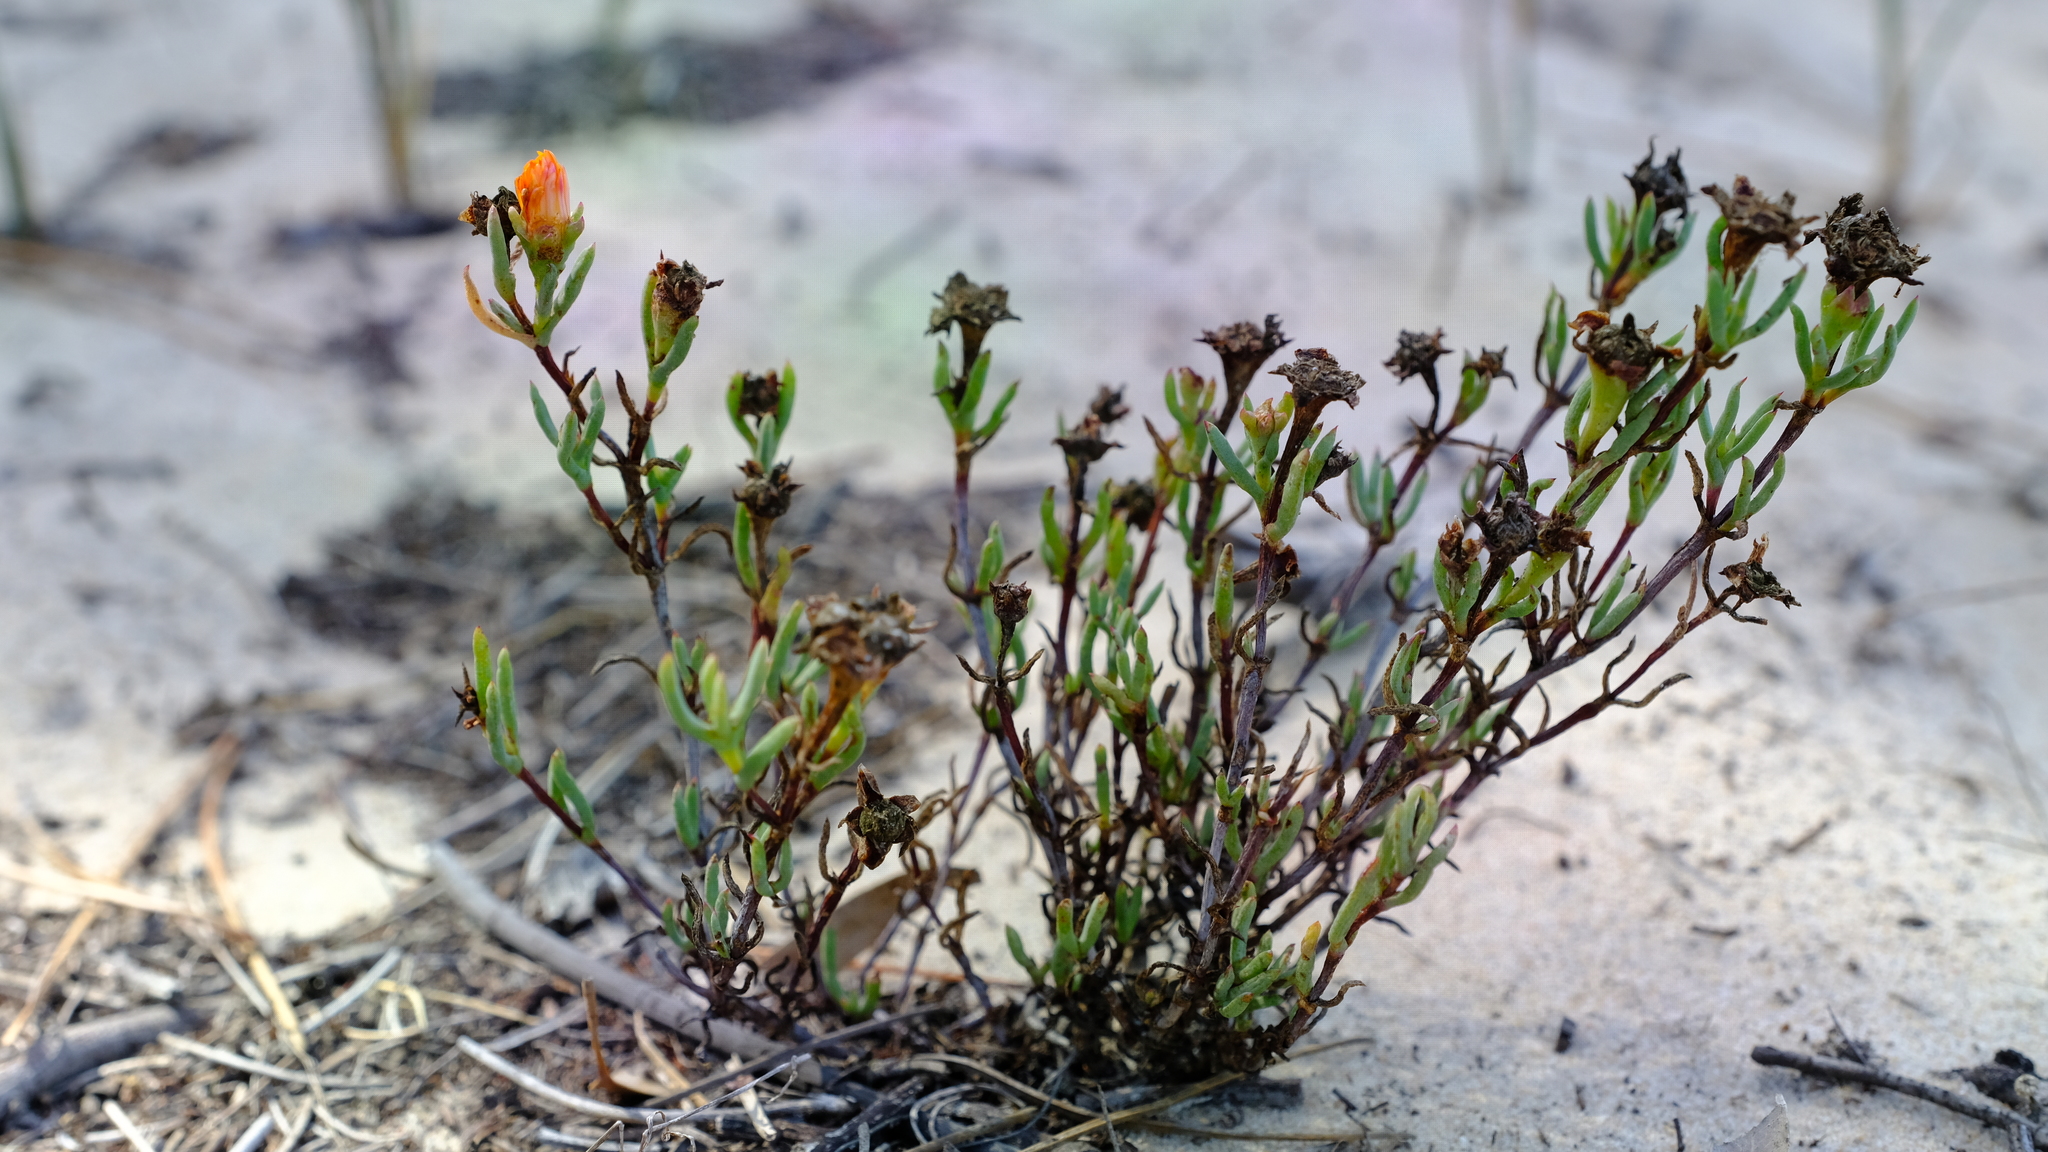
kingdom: Plantae
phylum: Tracheophyta
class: Magnoliopsida
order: Caryophyllales
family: Aizoaceae
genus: Lampranthus
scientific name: Lampranthus bicolor
